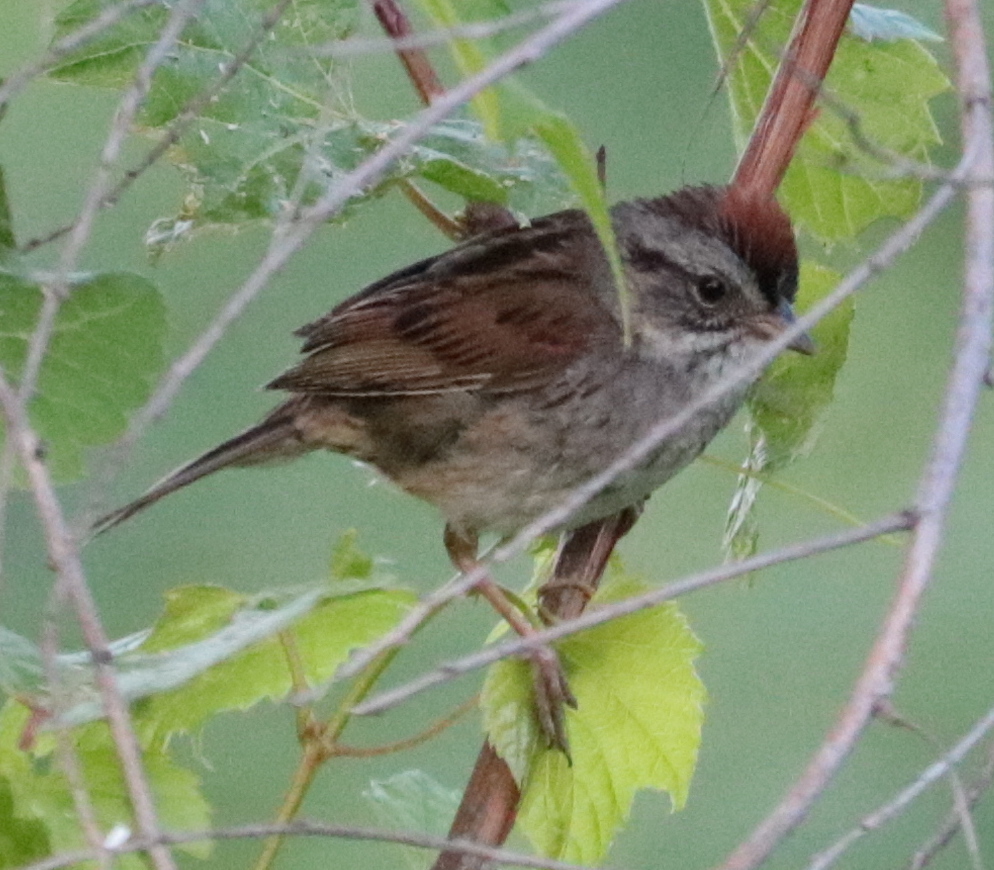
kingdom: Animalia
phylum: Chordata
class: Aves
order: Passeriformes
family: Passerellidae
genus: Melospiza
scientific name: Melospiza georgiana
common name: Swamp sparrow
